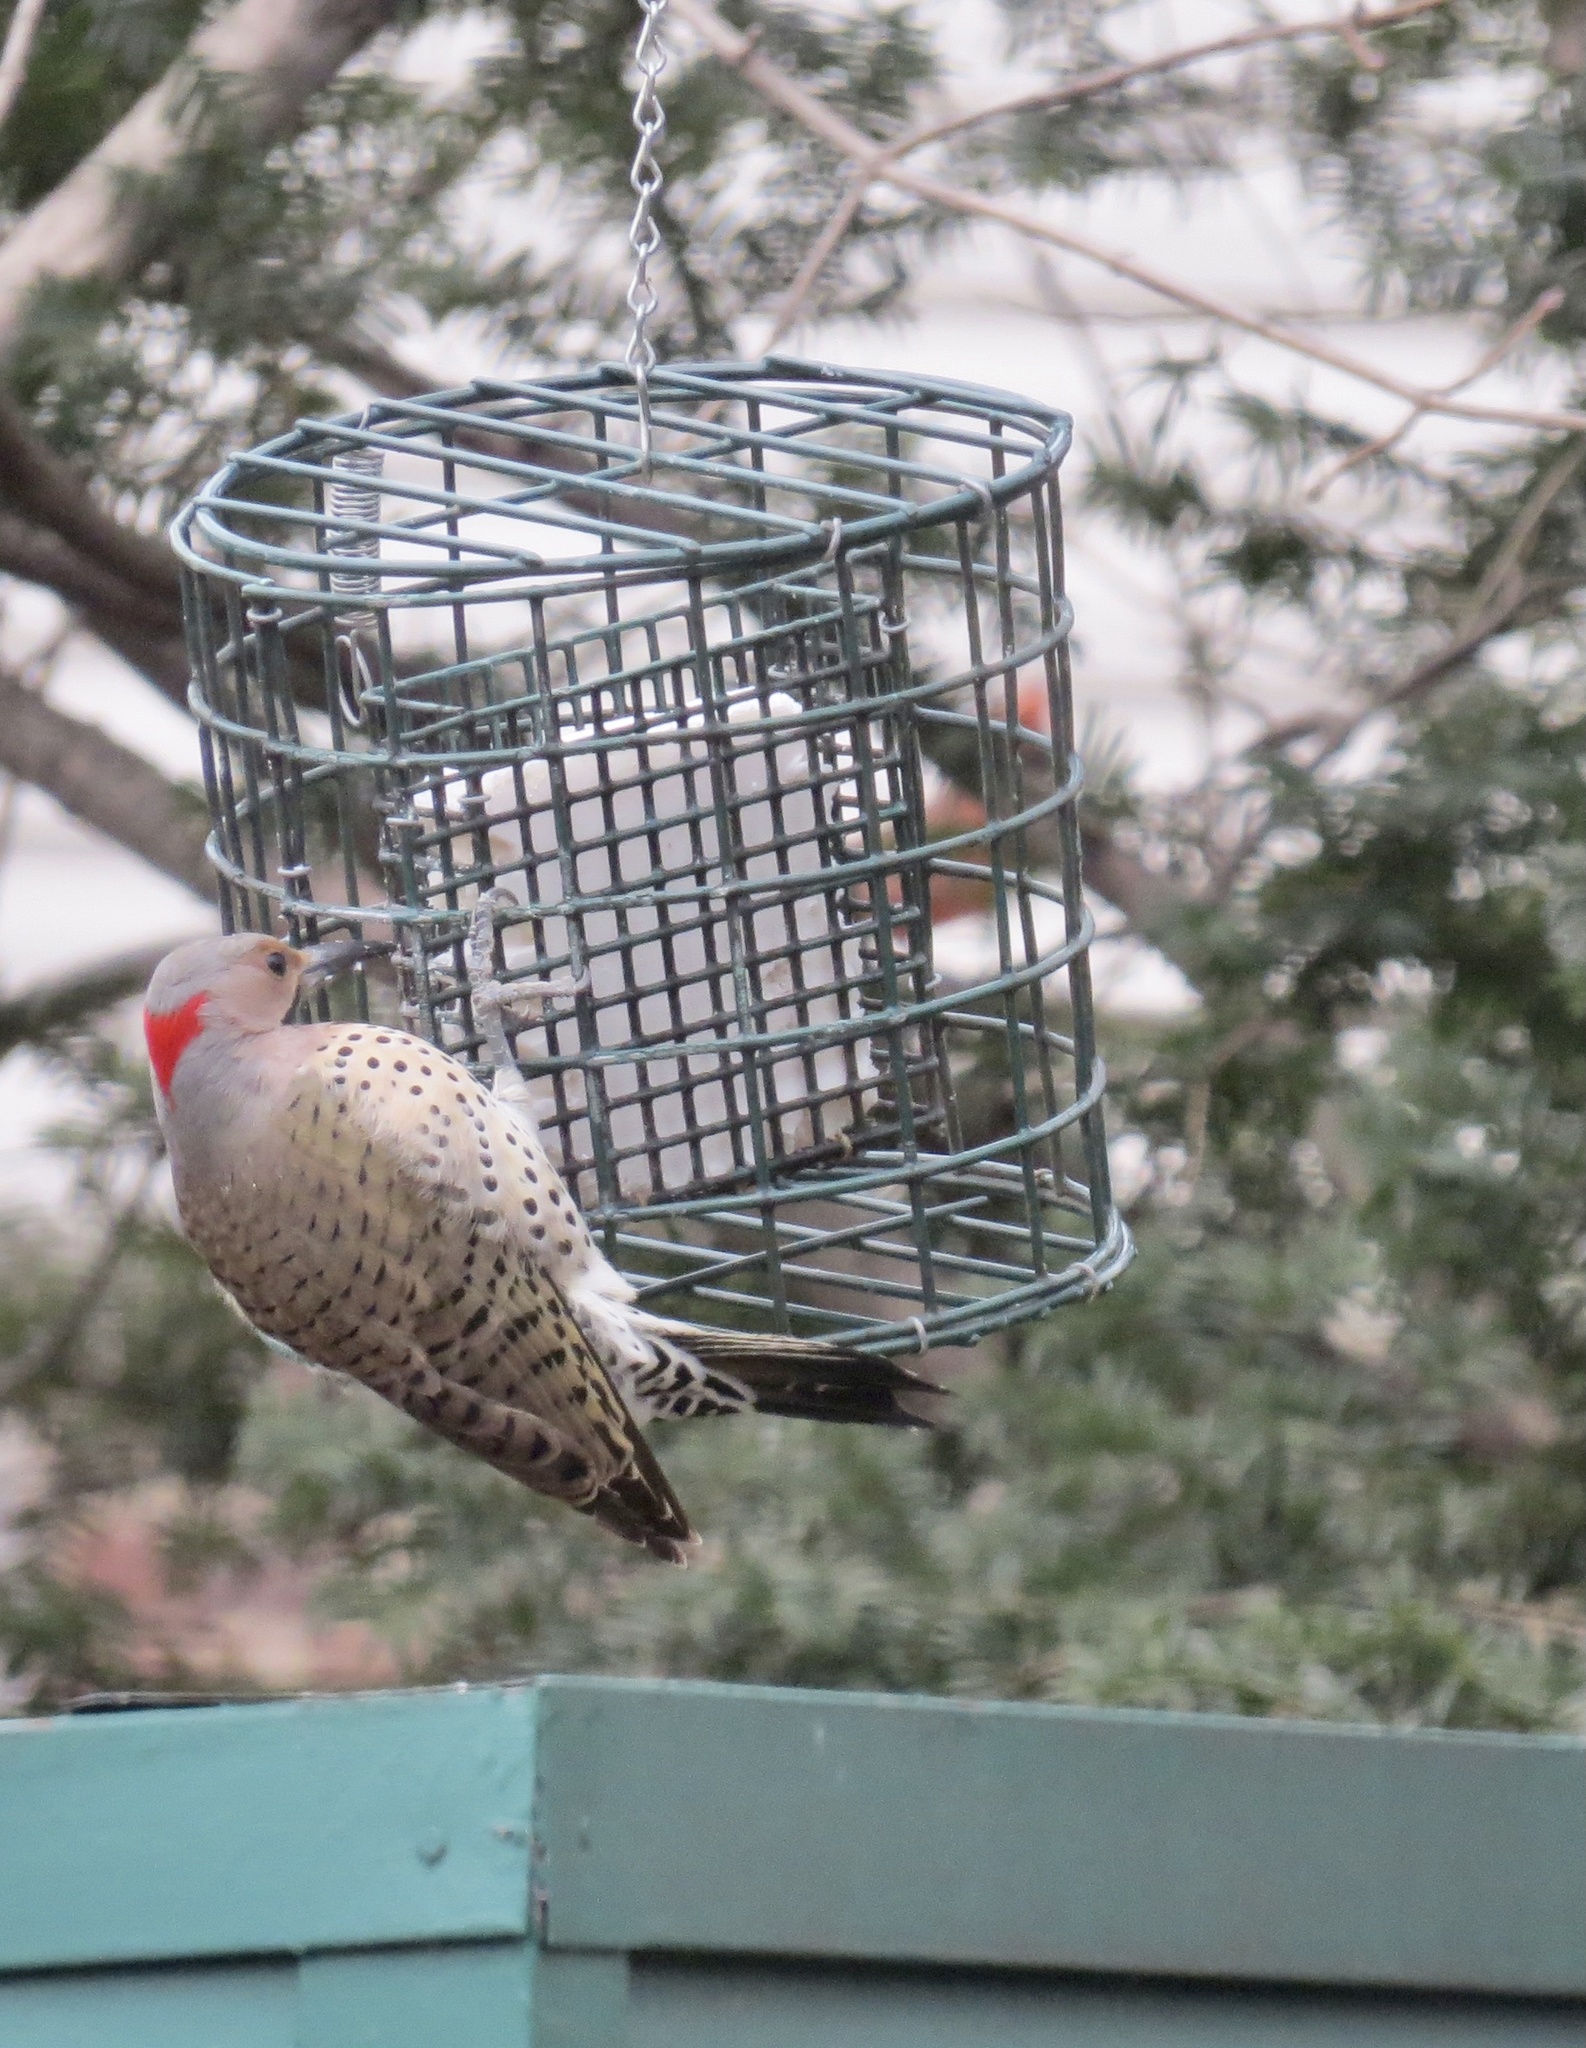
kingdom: Animalia
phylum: Chordata
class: Aves
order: Piciformes
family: Picidae
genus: Colaptes
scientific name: Colaptes auratus
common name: Northern flicker
